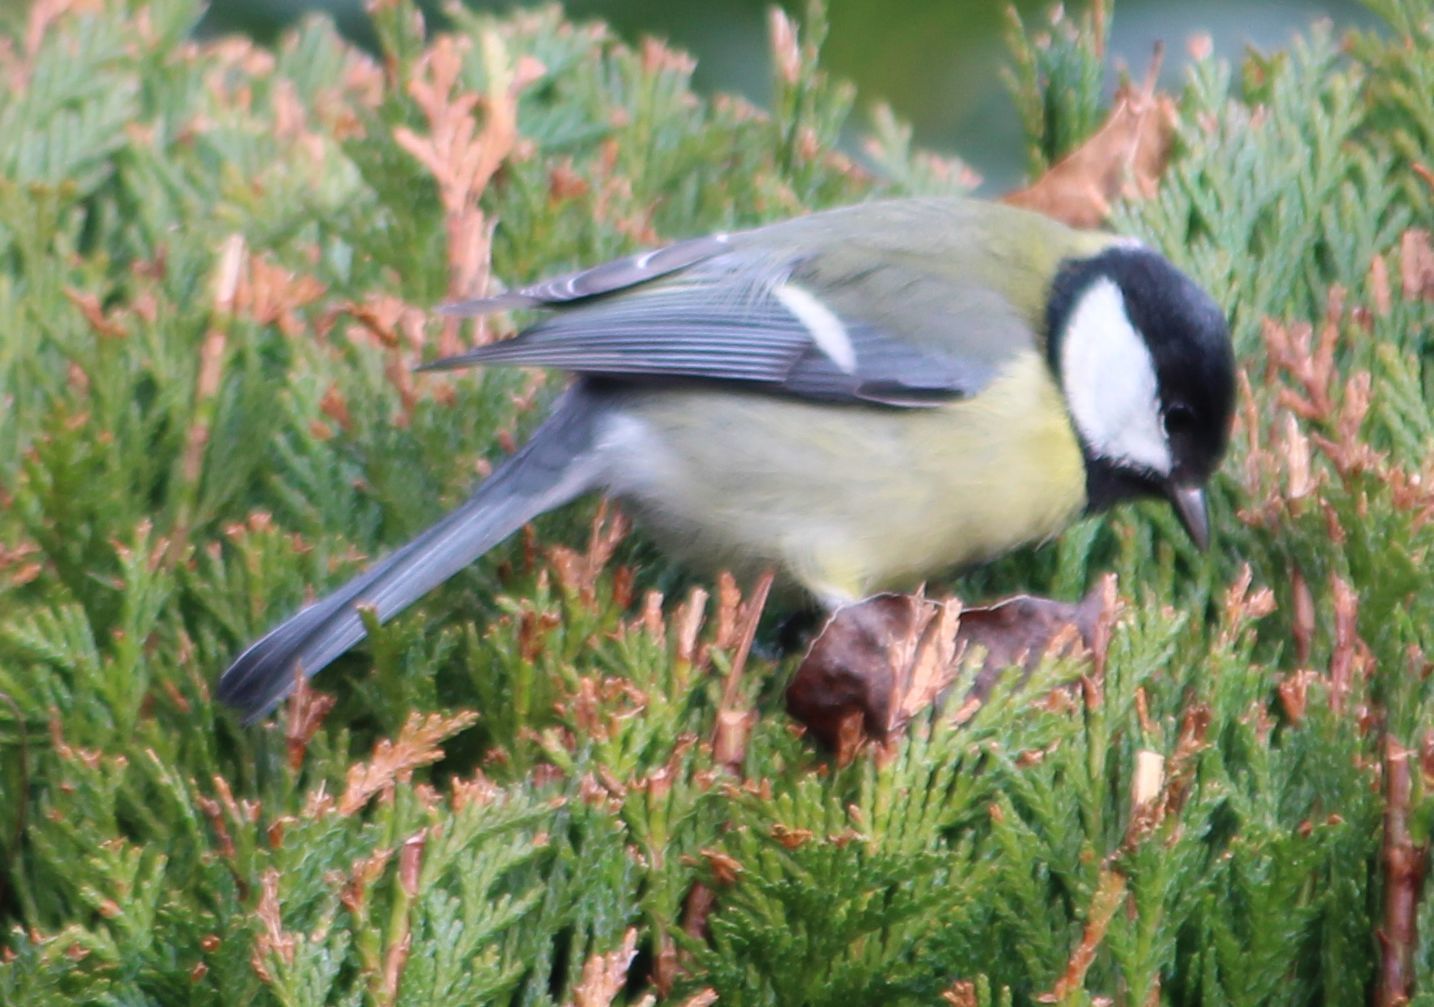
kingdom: Animalia
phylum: Chordata
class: Aves
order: Passeriformes
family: Paridae
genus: Parus
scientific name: Parus major
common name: Great tit
